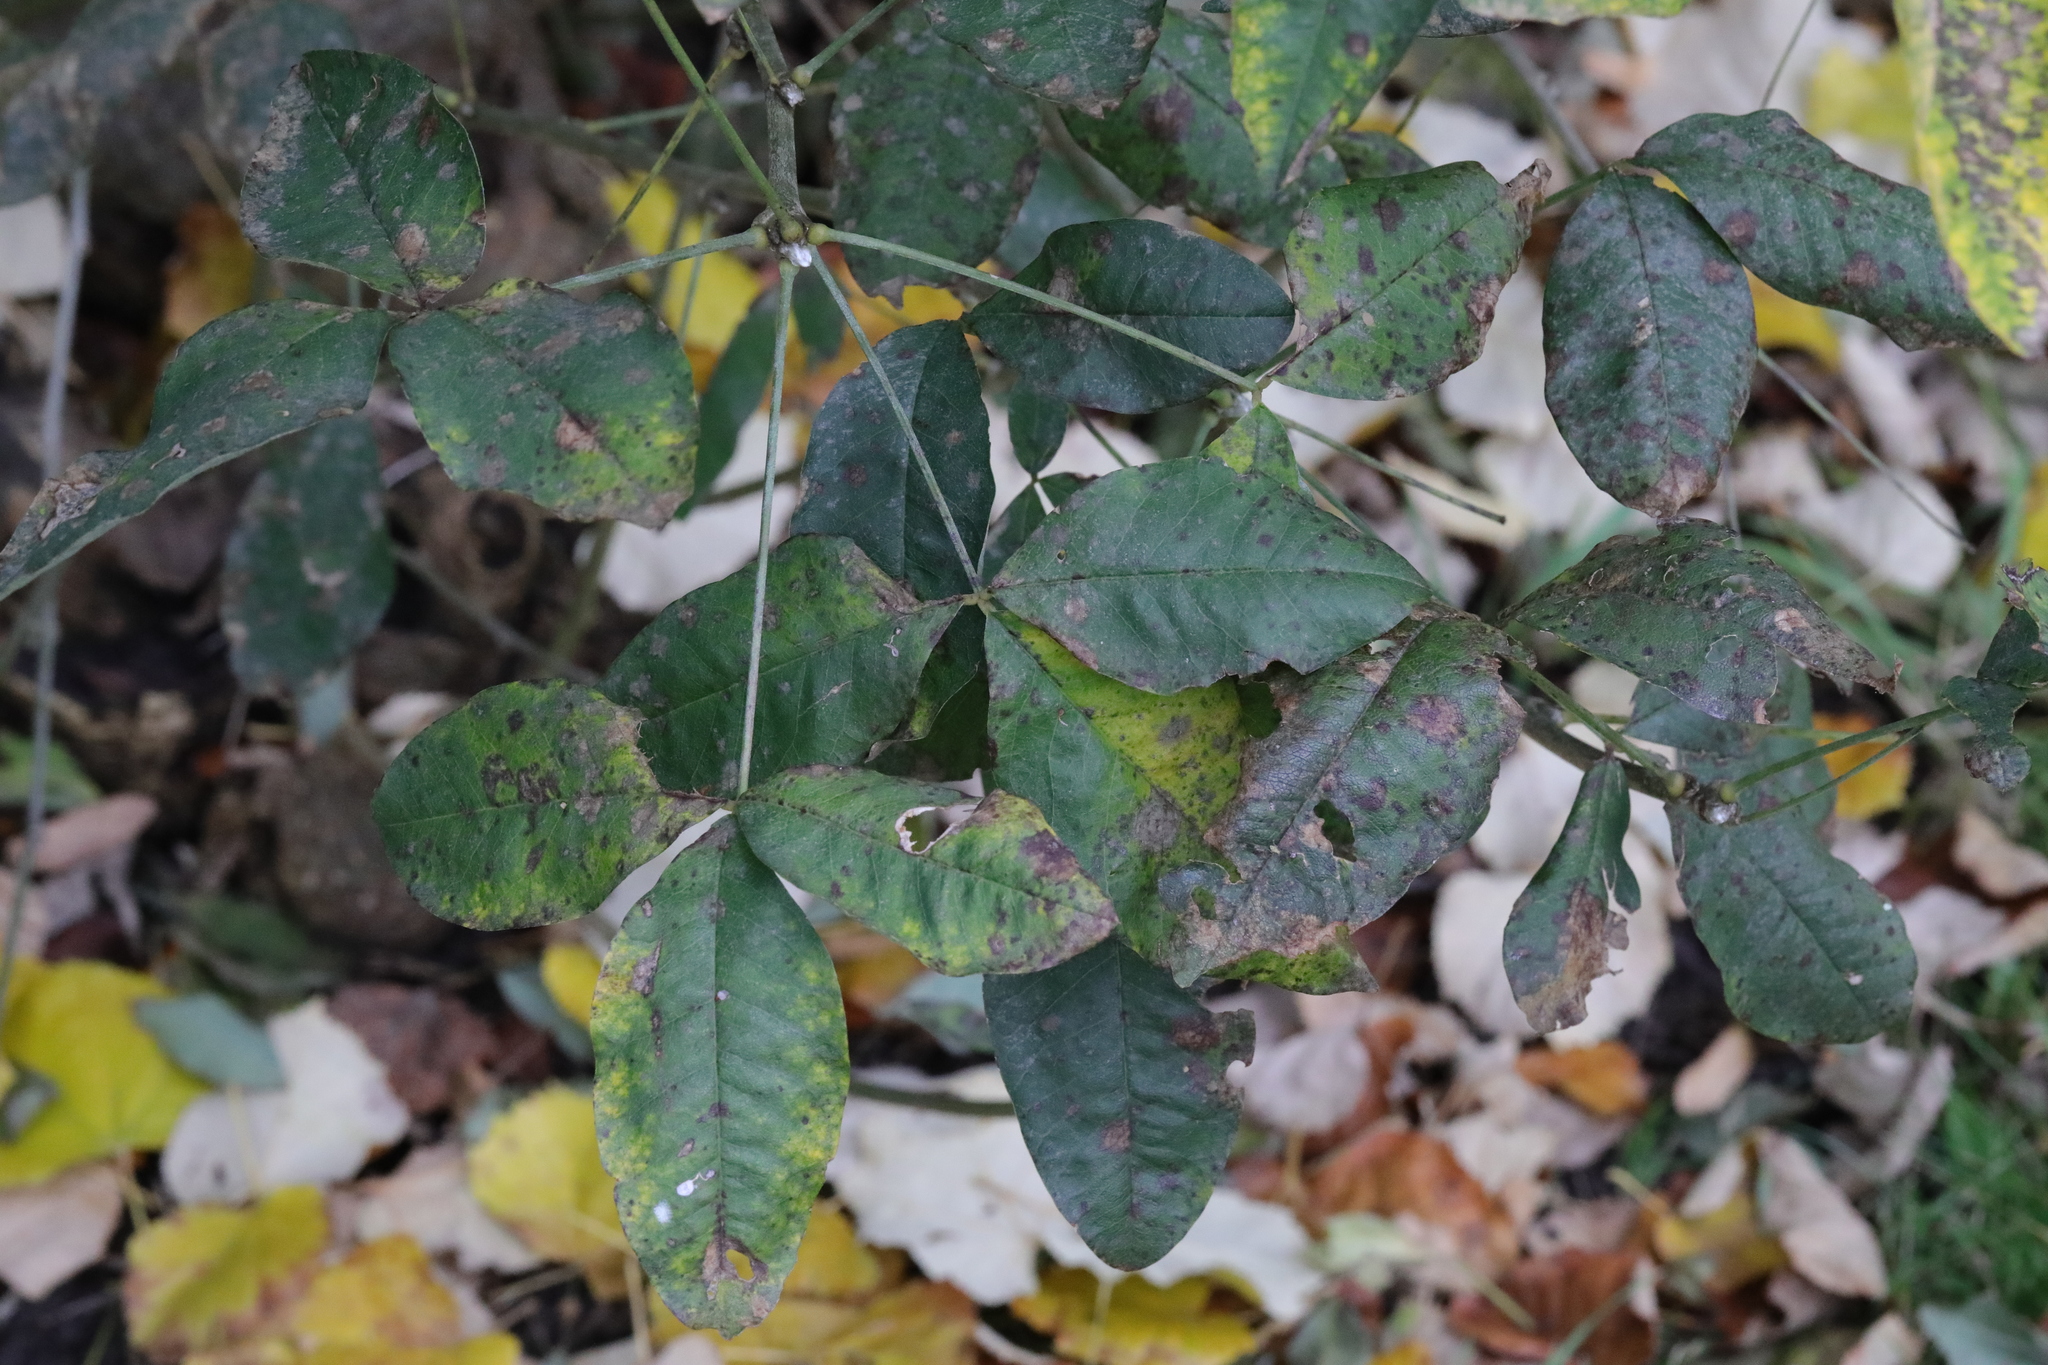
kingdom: Plantae
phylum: Tracheophyta
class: Magnoliopsida
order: Fabales
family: Fabaceae
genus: Laburnum
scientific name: Laburnum anagyroides
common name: Laburnum
